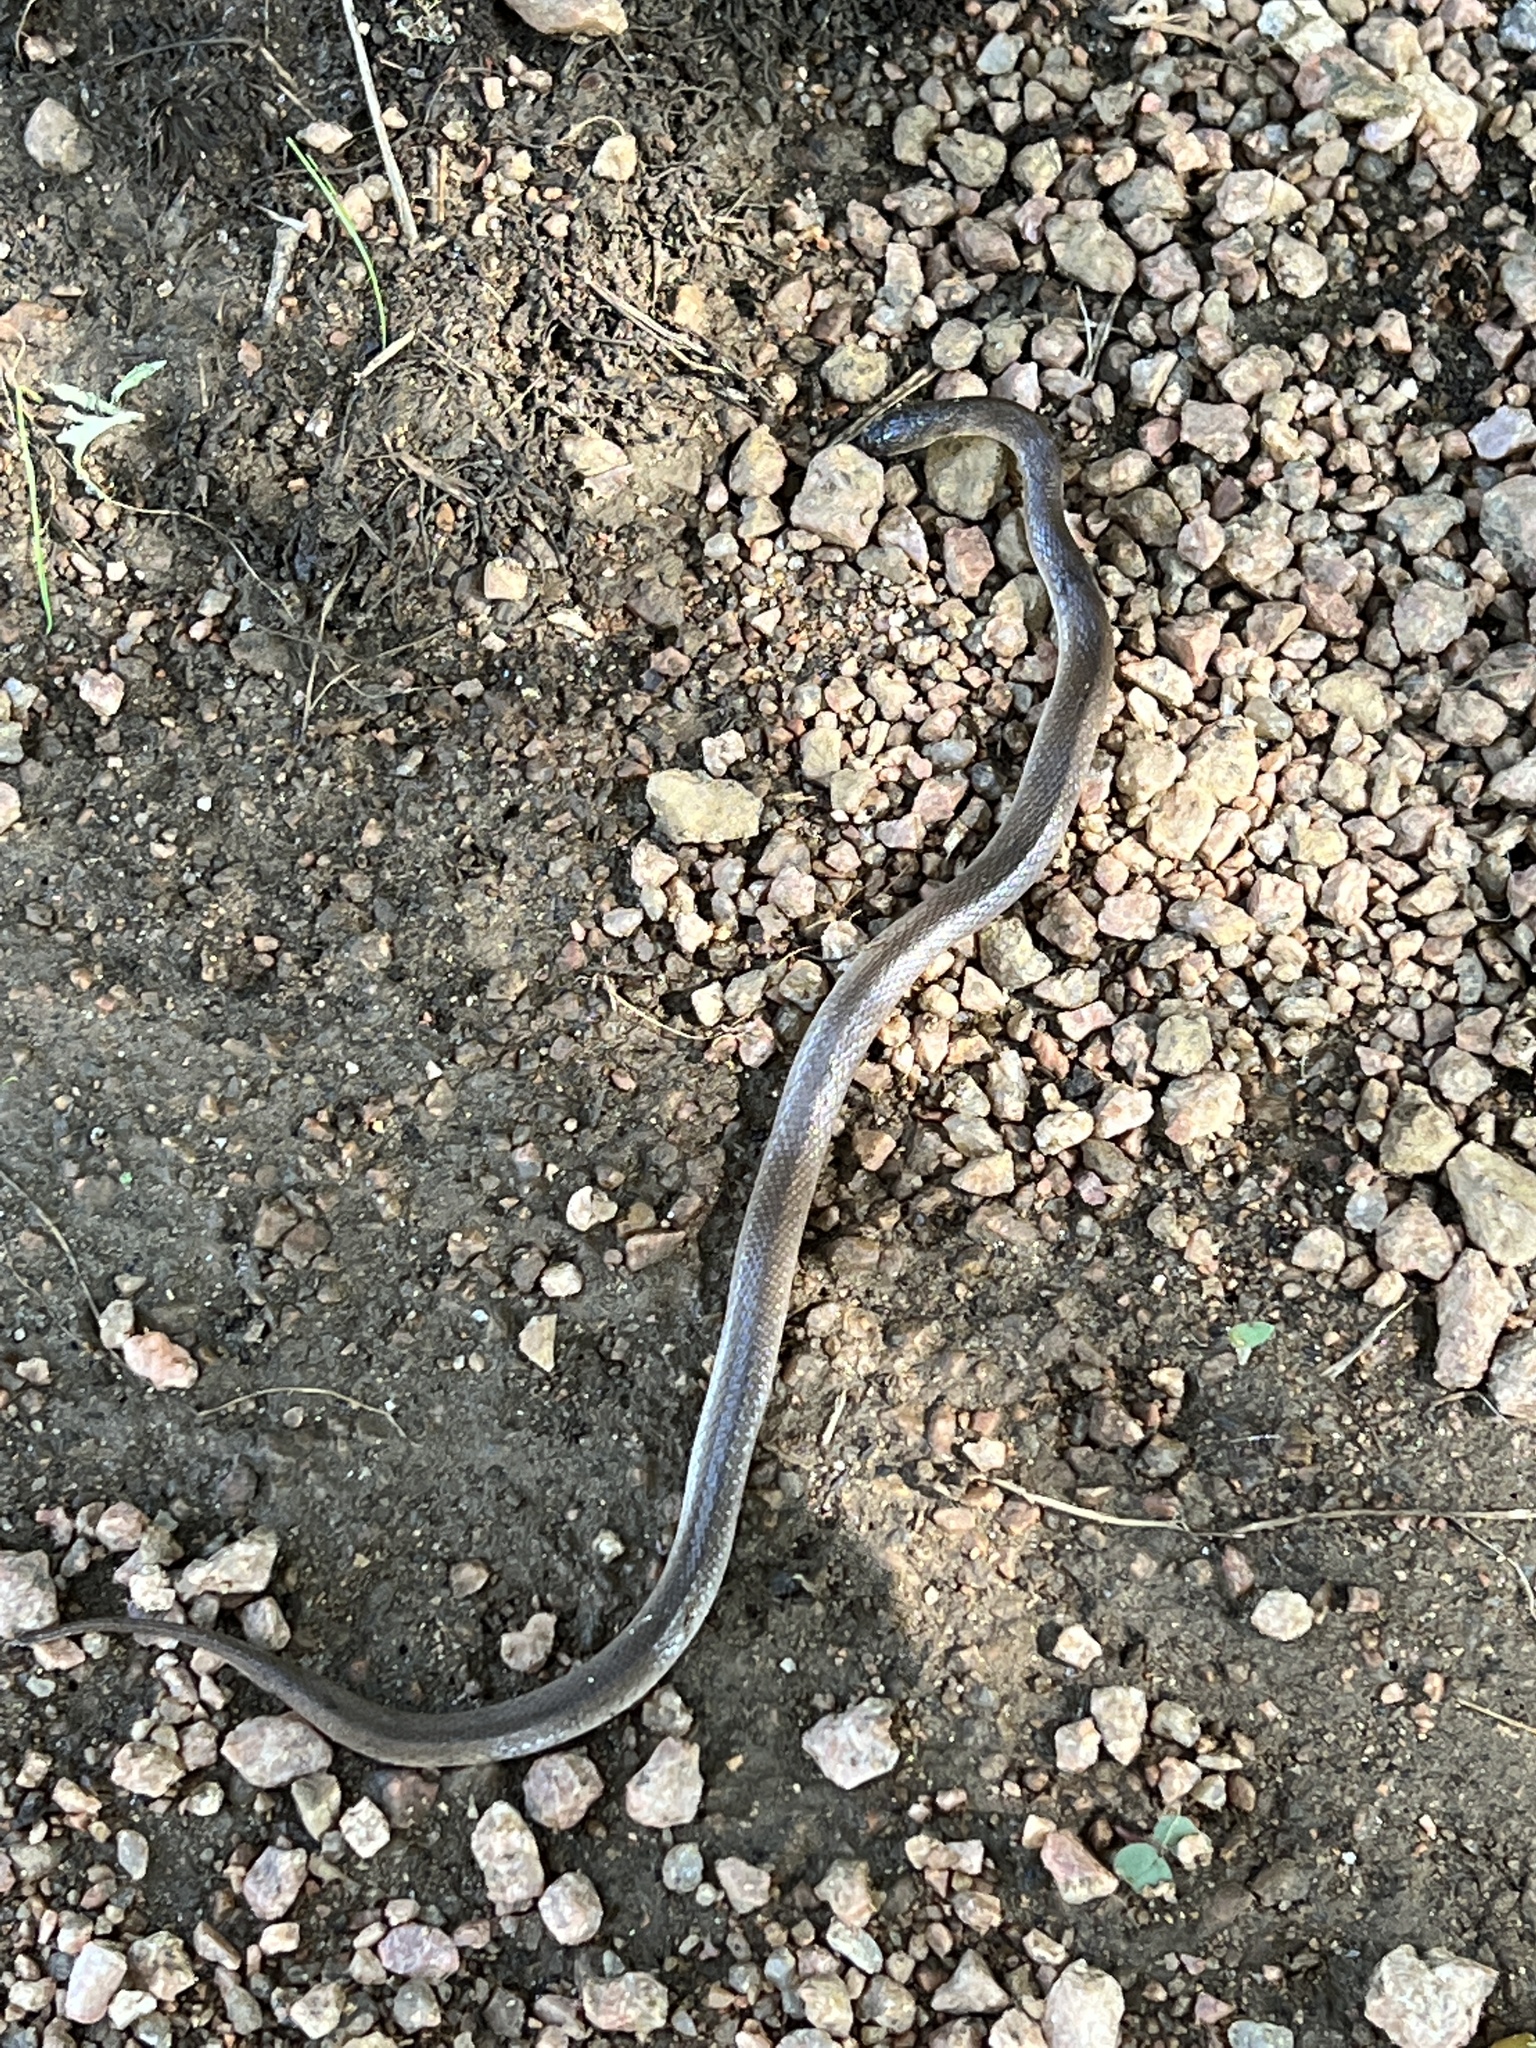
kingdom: Animalia
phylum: Chordata
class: Squamata
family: Colubridae
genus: Haldea
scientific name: Haldea striatula
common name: Rough earth snake
